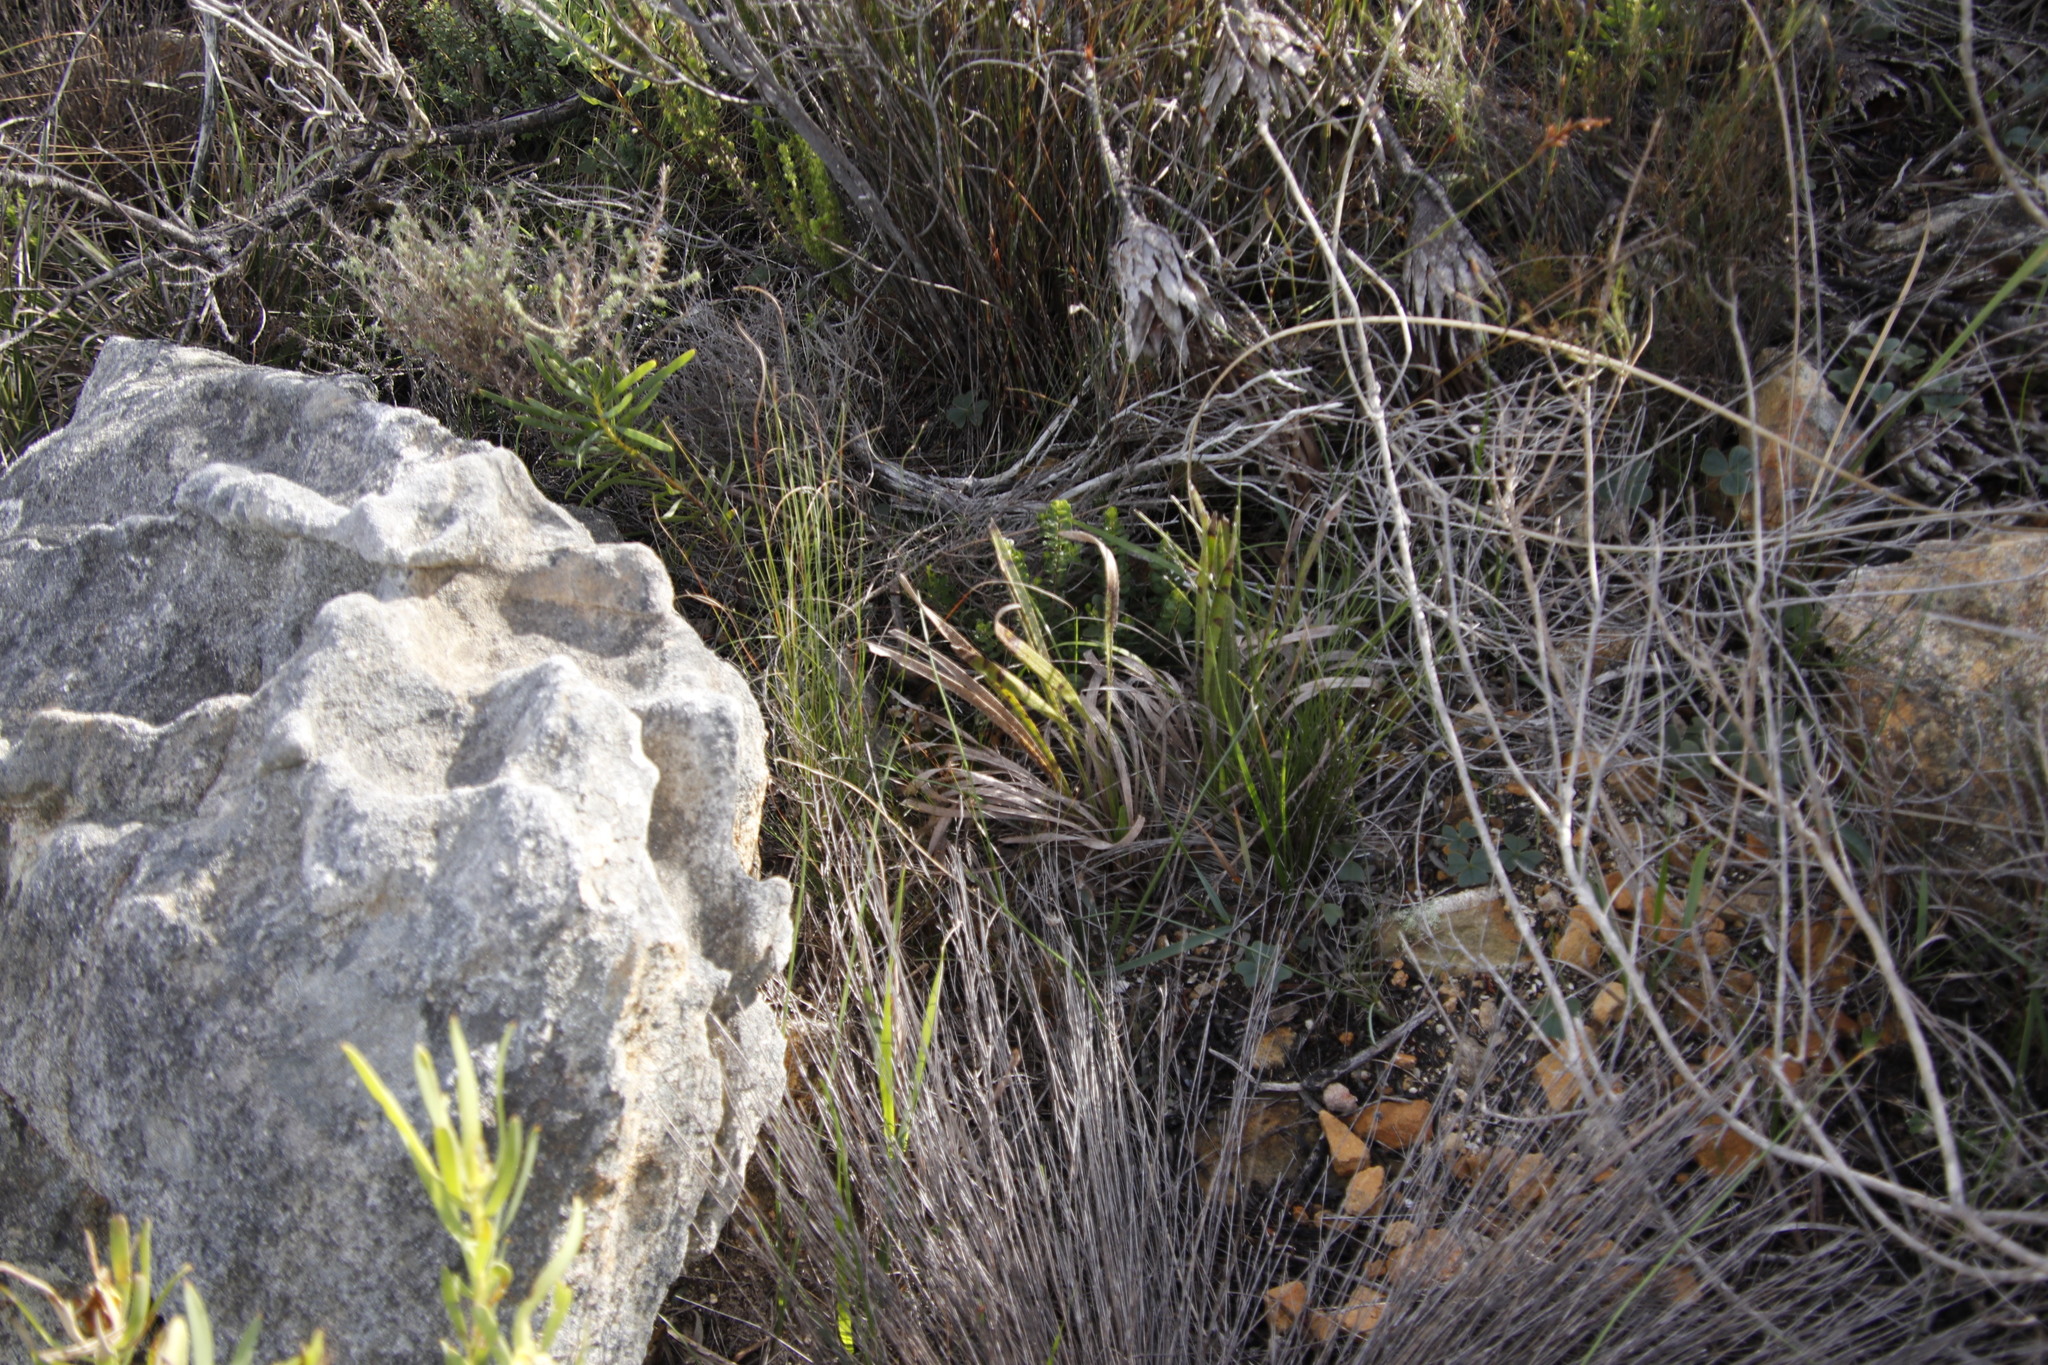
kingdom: Plantae
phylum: Tracheophyta
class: Magnoliopsida
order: Proteales
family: Proteaceae
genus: Protea
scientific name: Protea scabra
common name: Sandpaper-leaf sugarbush
